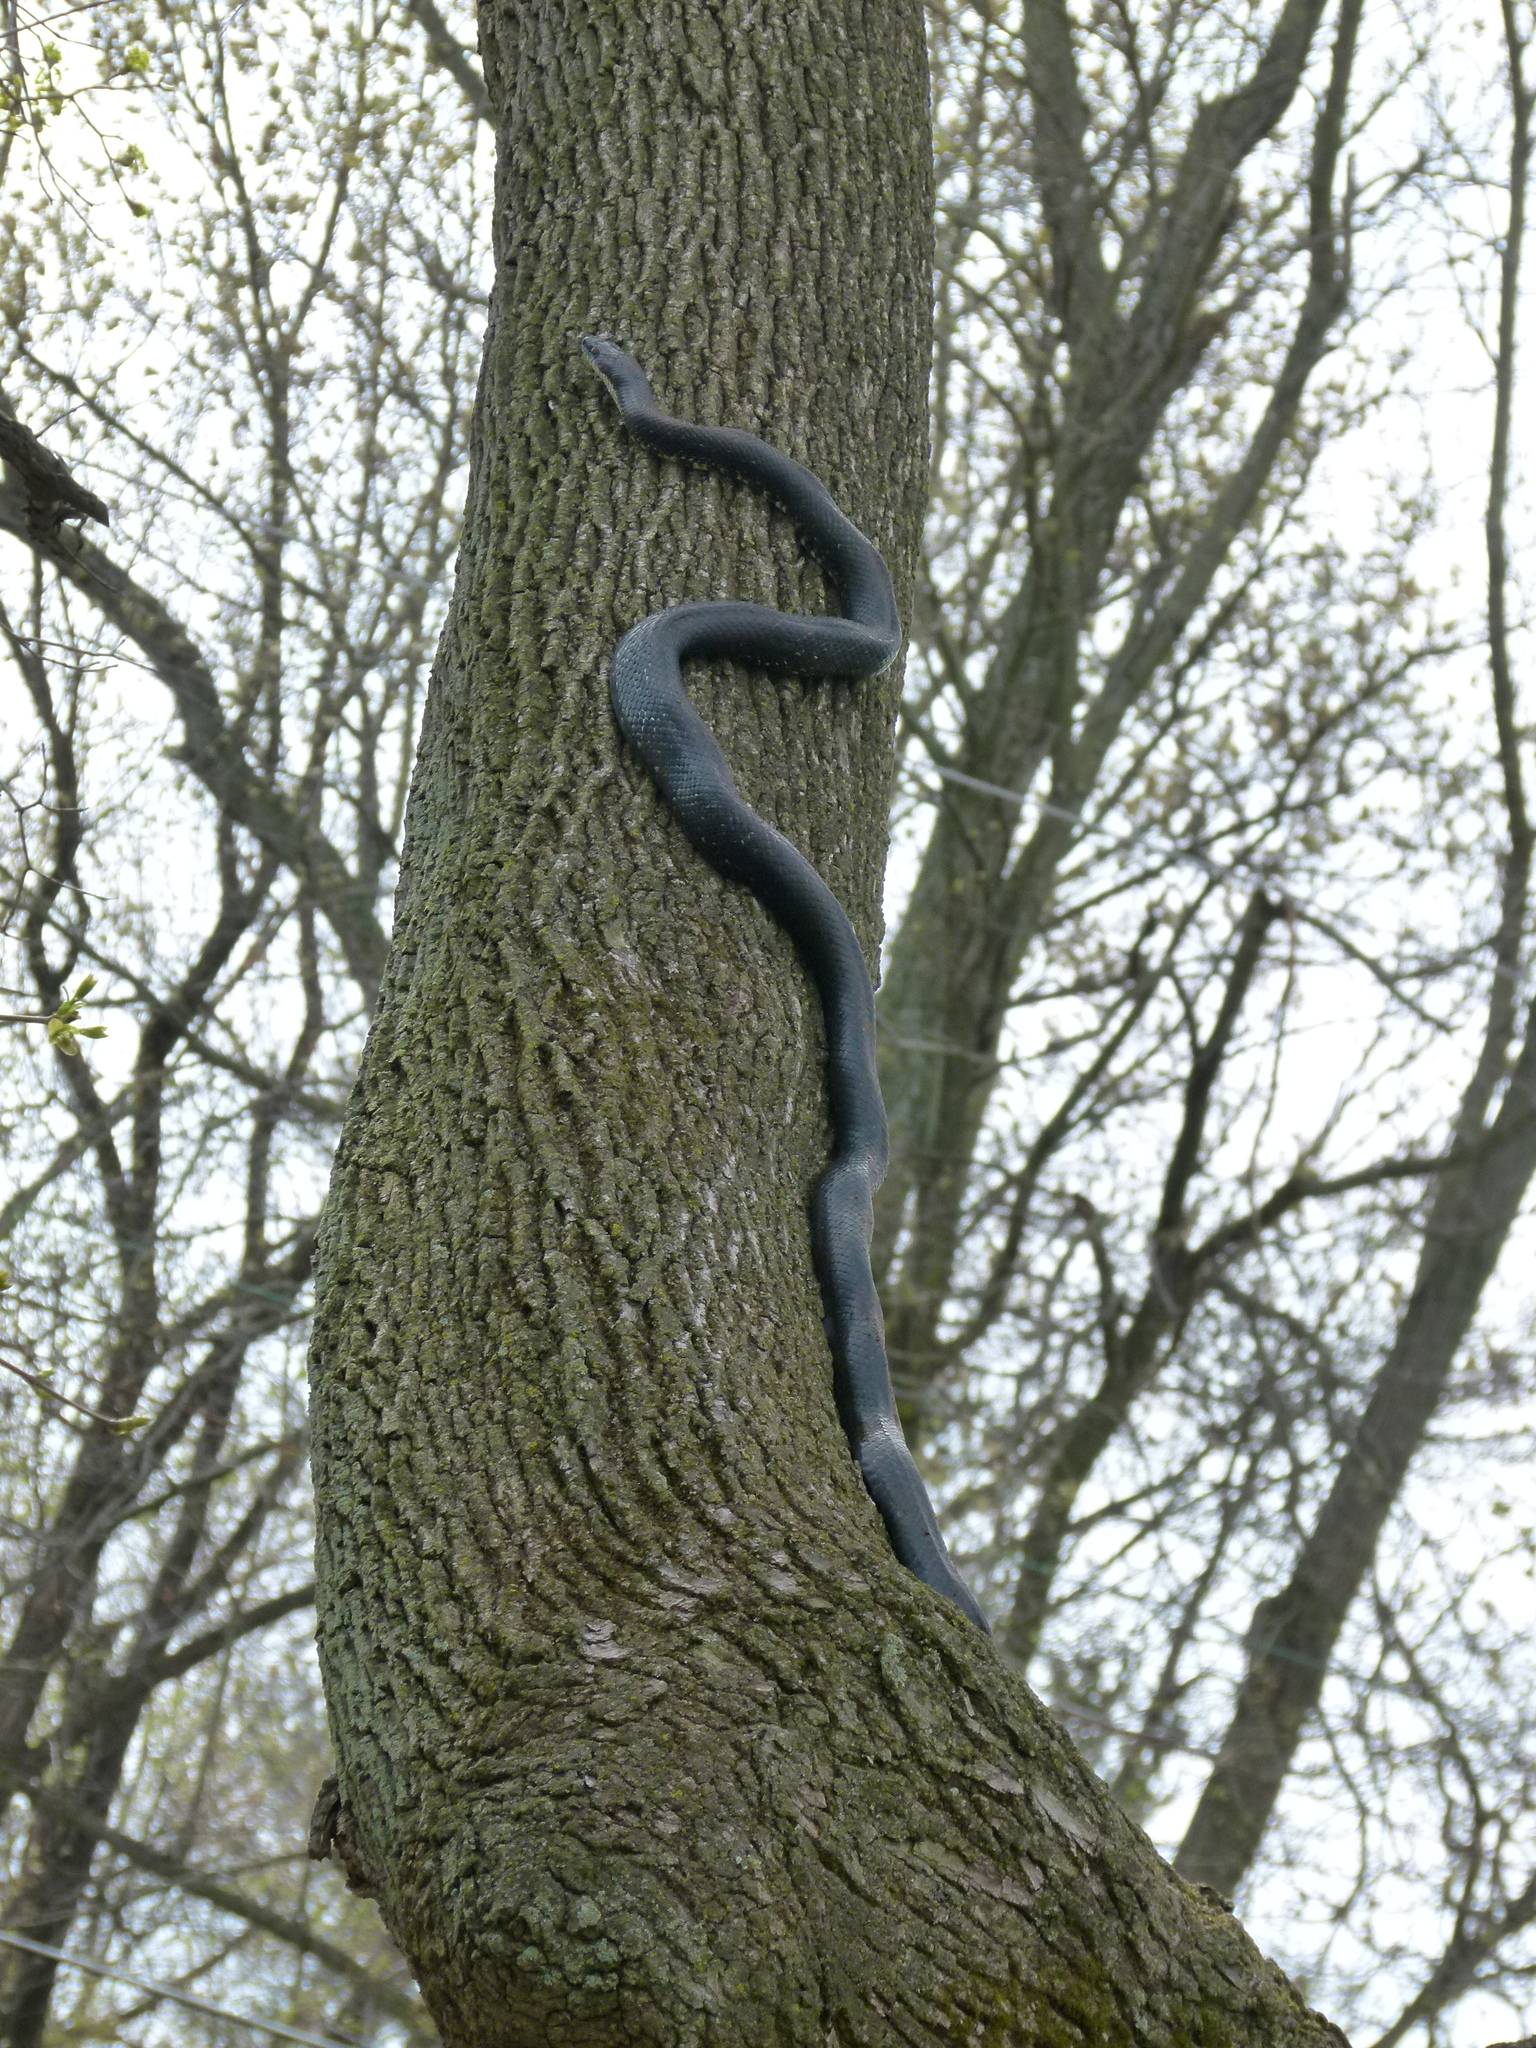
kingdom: Animalia
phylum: Chordata
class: Squamata
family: Colubridae
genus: Pantherophis
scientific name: Pantherophis alleghaniensis
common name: Eastern rat snake
